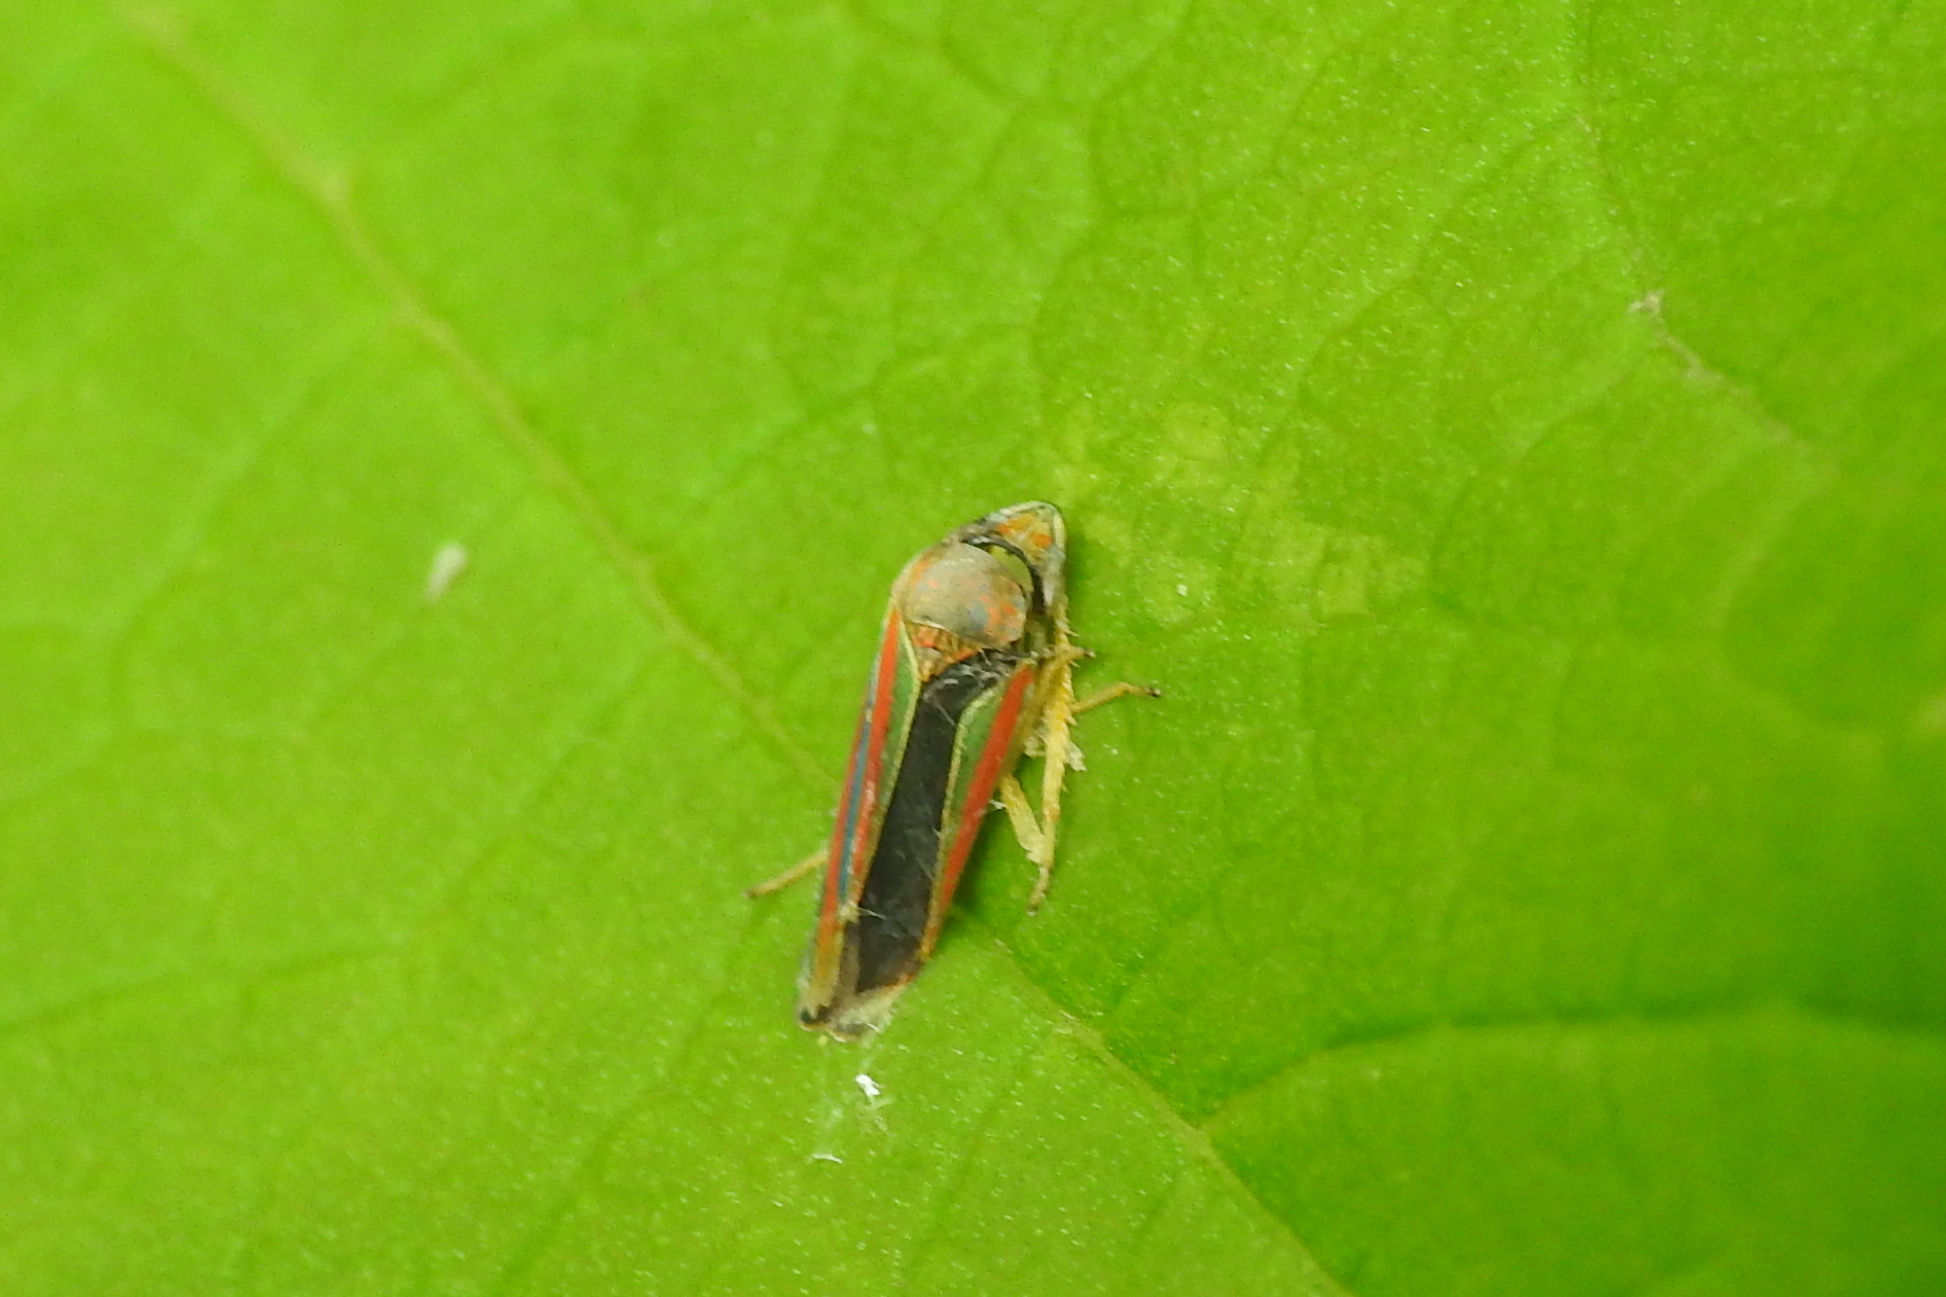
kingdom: Animalia
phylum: Arthropoda
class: Insecta
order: Hemiptera
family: Cicadellidae
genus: Graphocephala
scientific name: Graphocephala versuta
